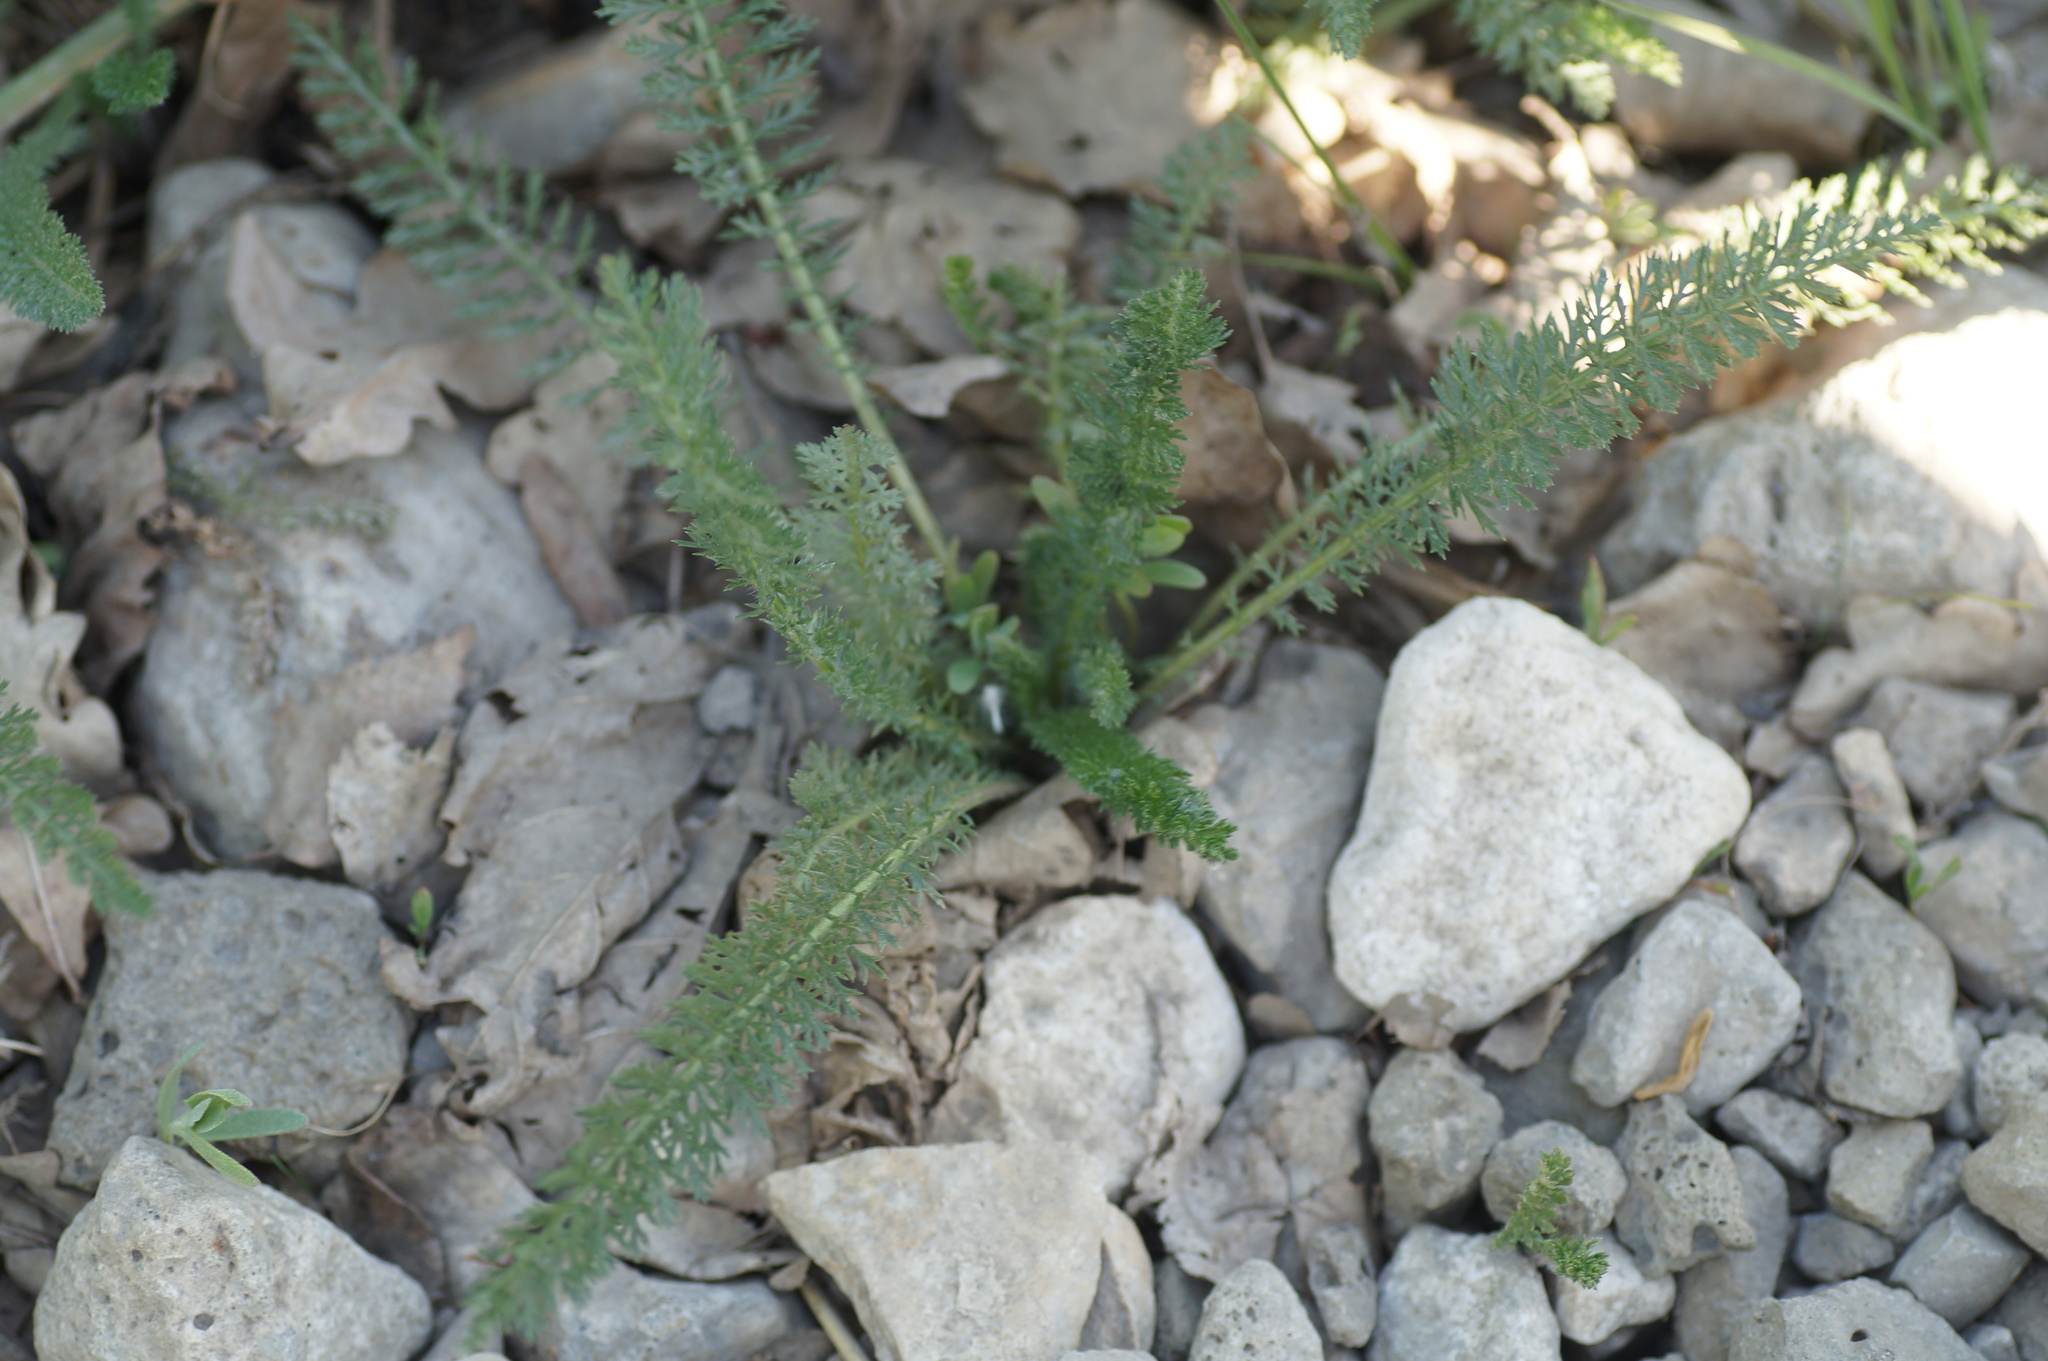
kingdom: Plantae
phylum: Tracheophyta
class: Magnoliopsida
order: Asterales
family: Asteraceae
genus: Achillea
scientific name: Achillea millefolium
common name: Yarrow
